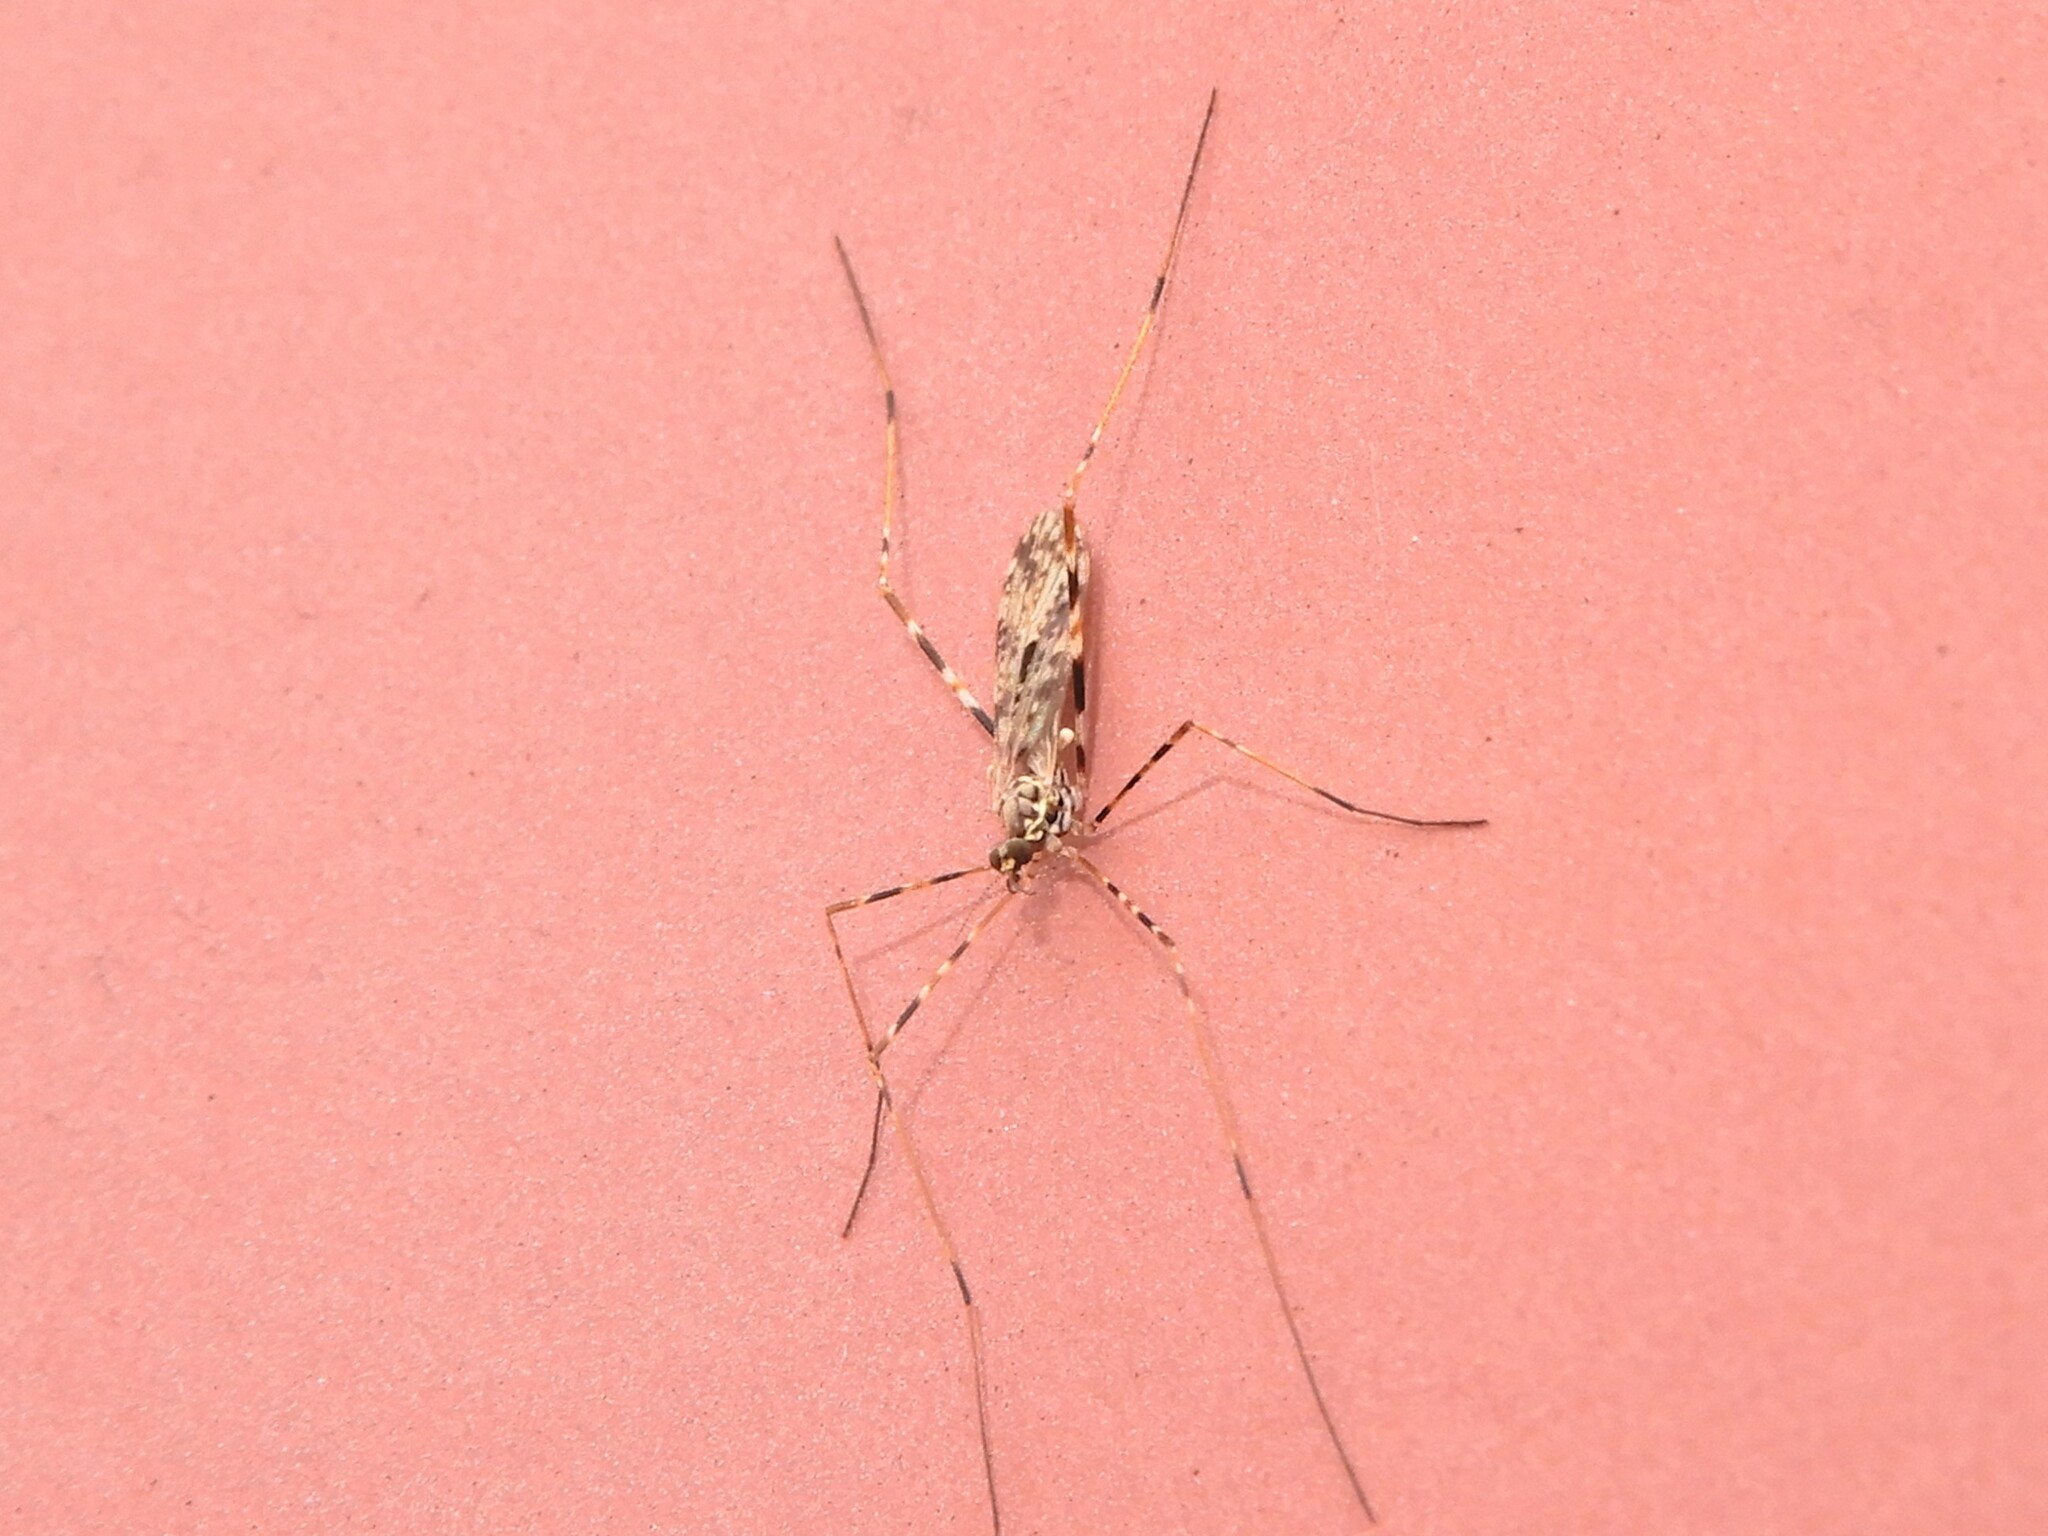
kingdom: Animalia
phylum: Arthropoda
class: Insecta
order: Diptera
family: Limoniidae
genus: Amphineurus
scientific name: Amphineurus hudsoni
